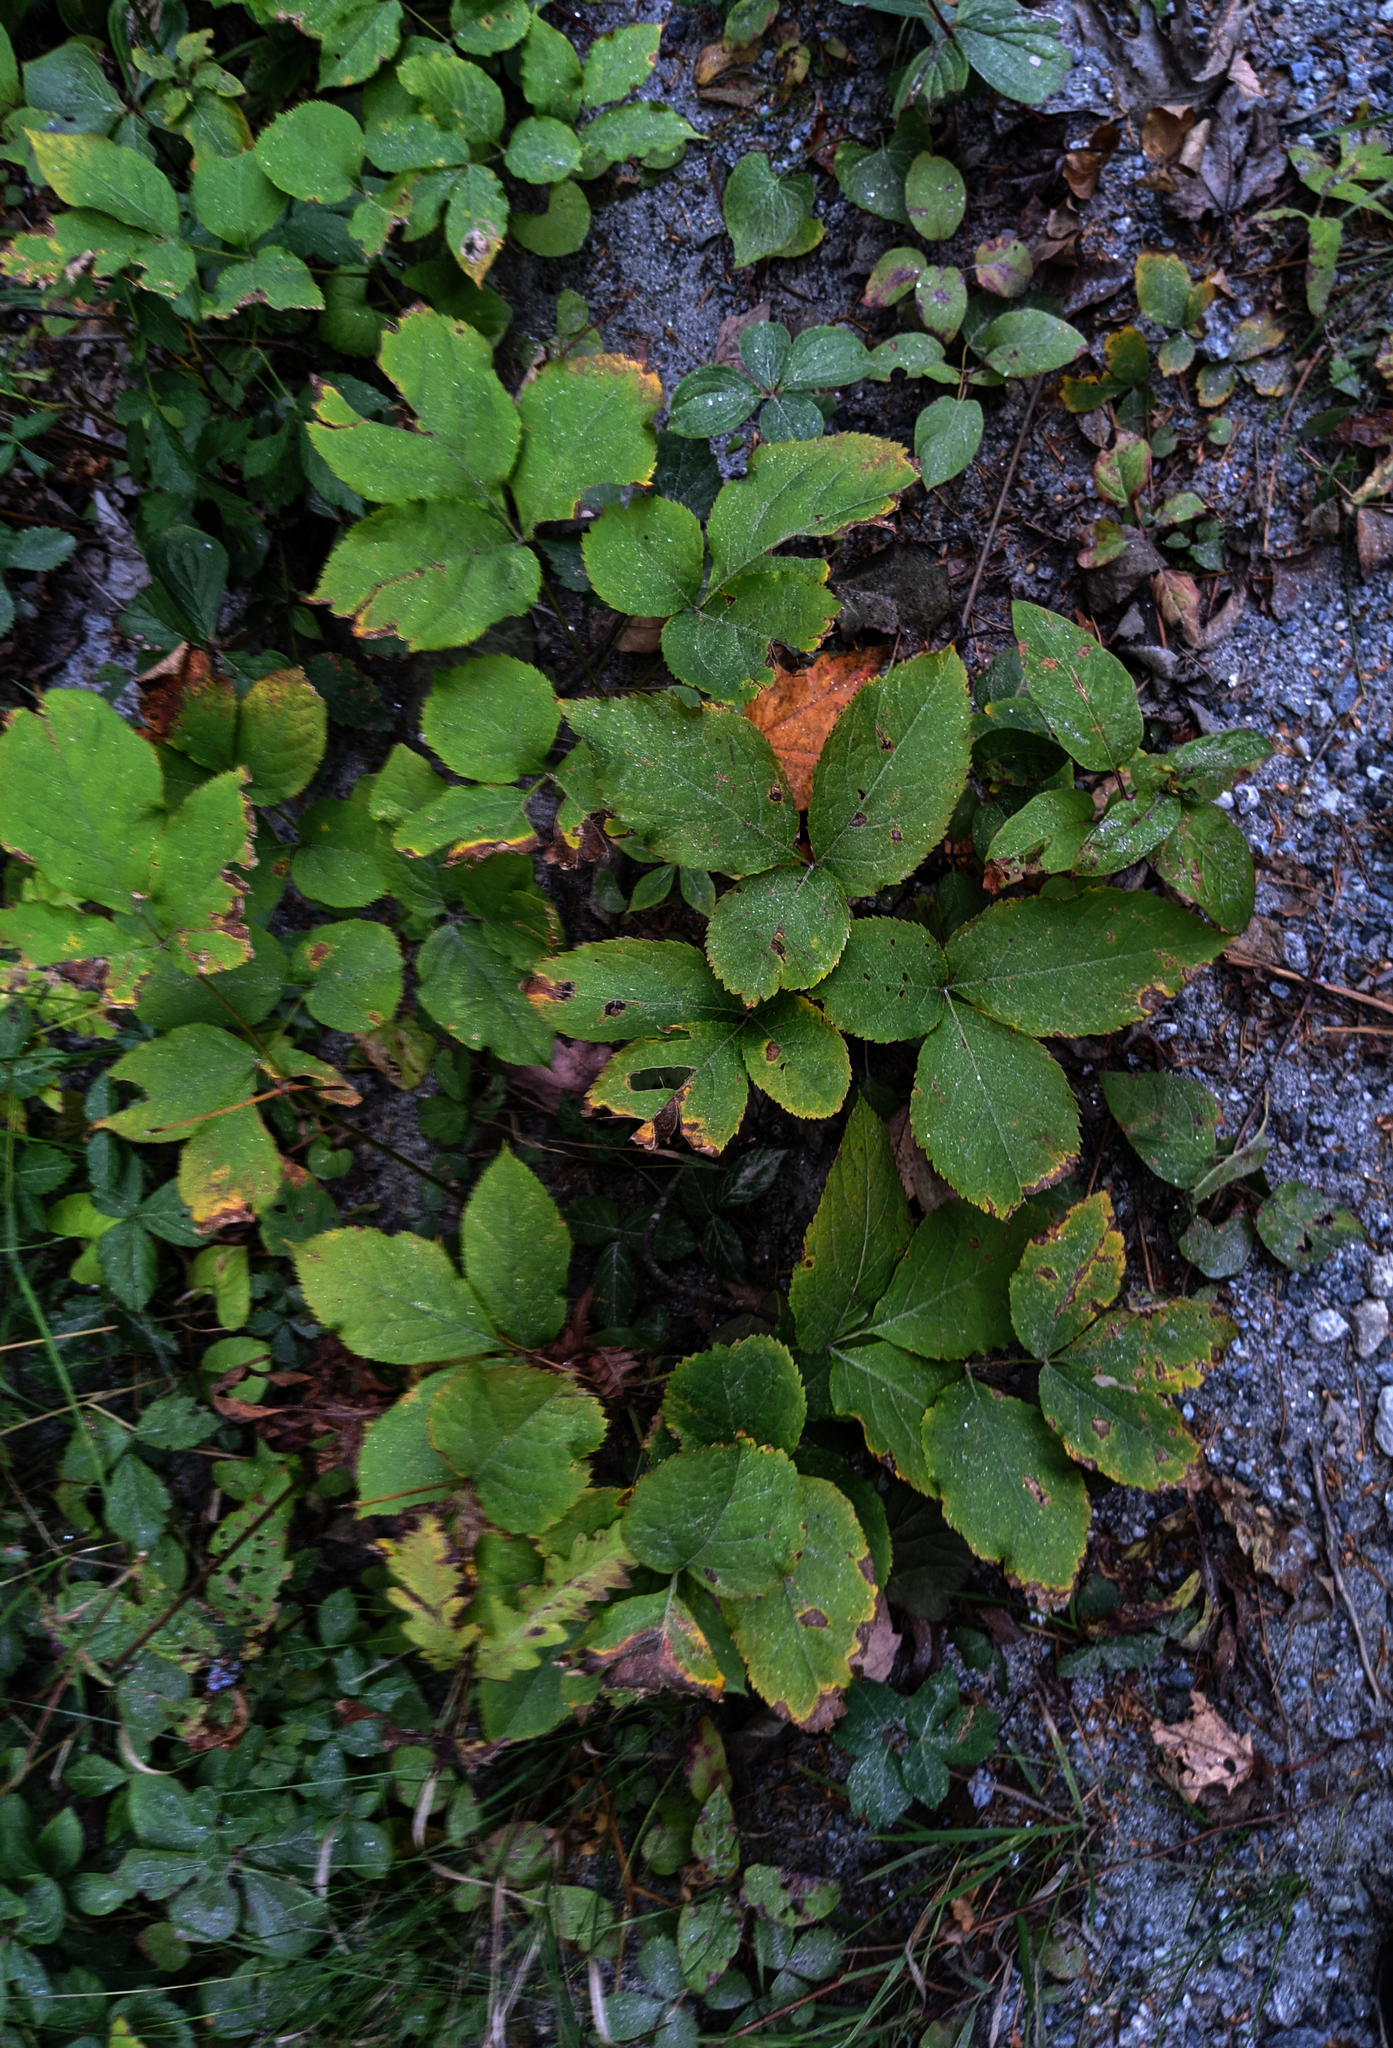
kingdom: Plantae
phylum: Tracheophyta
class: Magnoliopsida
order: Apiales
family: Araliaceae
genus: Aralia
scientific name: Aralia nudicaulis
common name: Wild sarsaparilla
